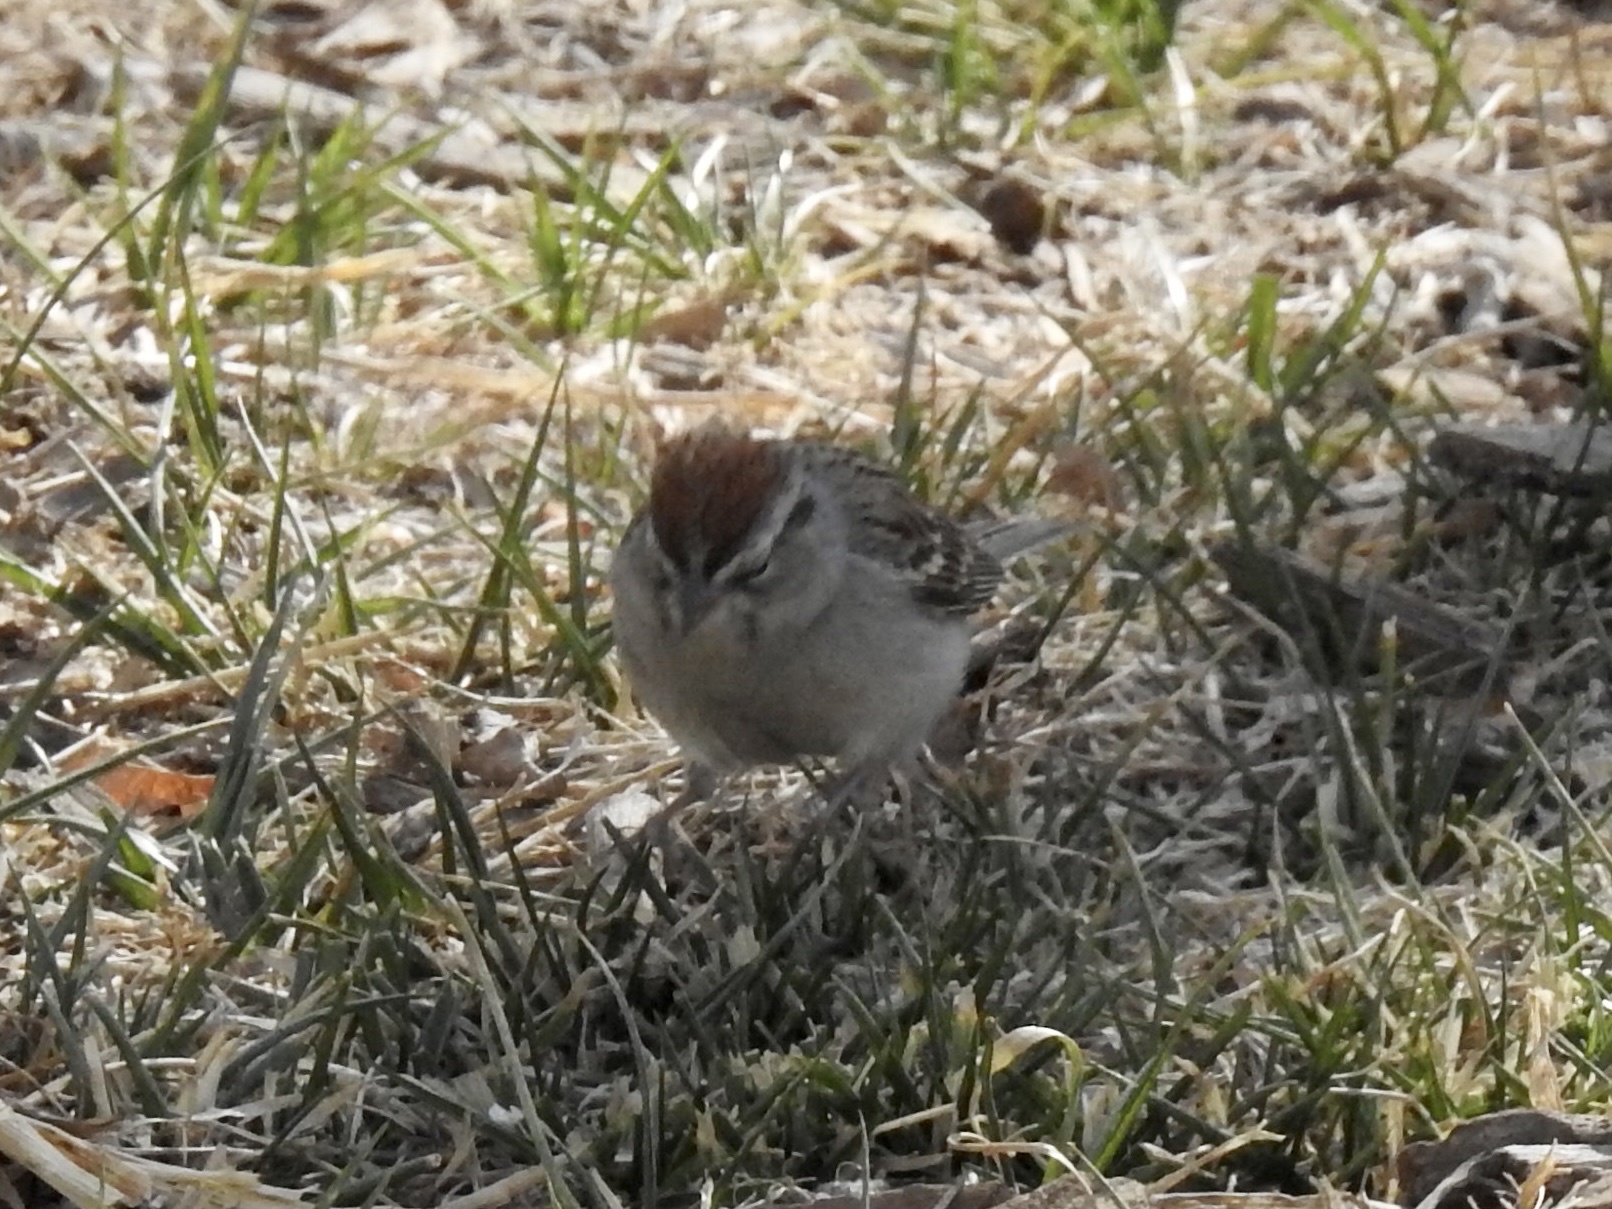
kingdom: Animalia
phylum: Chordata
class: Aves
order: Passeriformes
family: Passerellidae
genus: Spizella
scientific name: Spizella passerina
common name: Chipping sparrow
